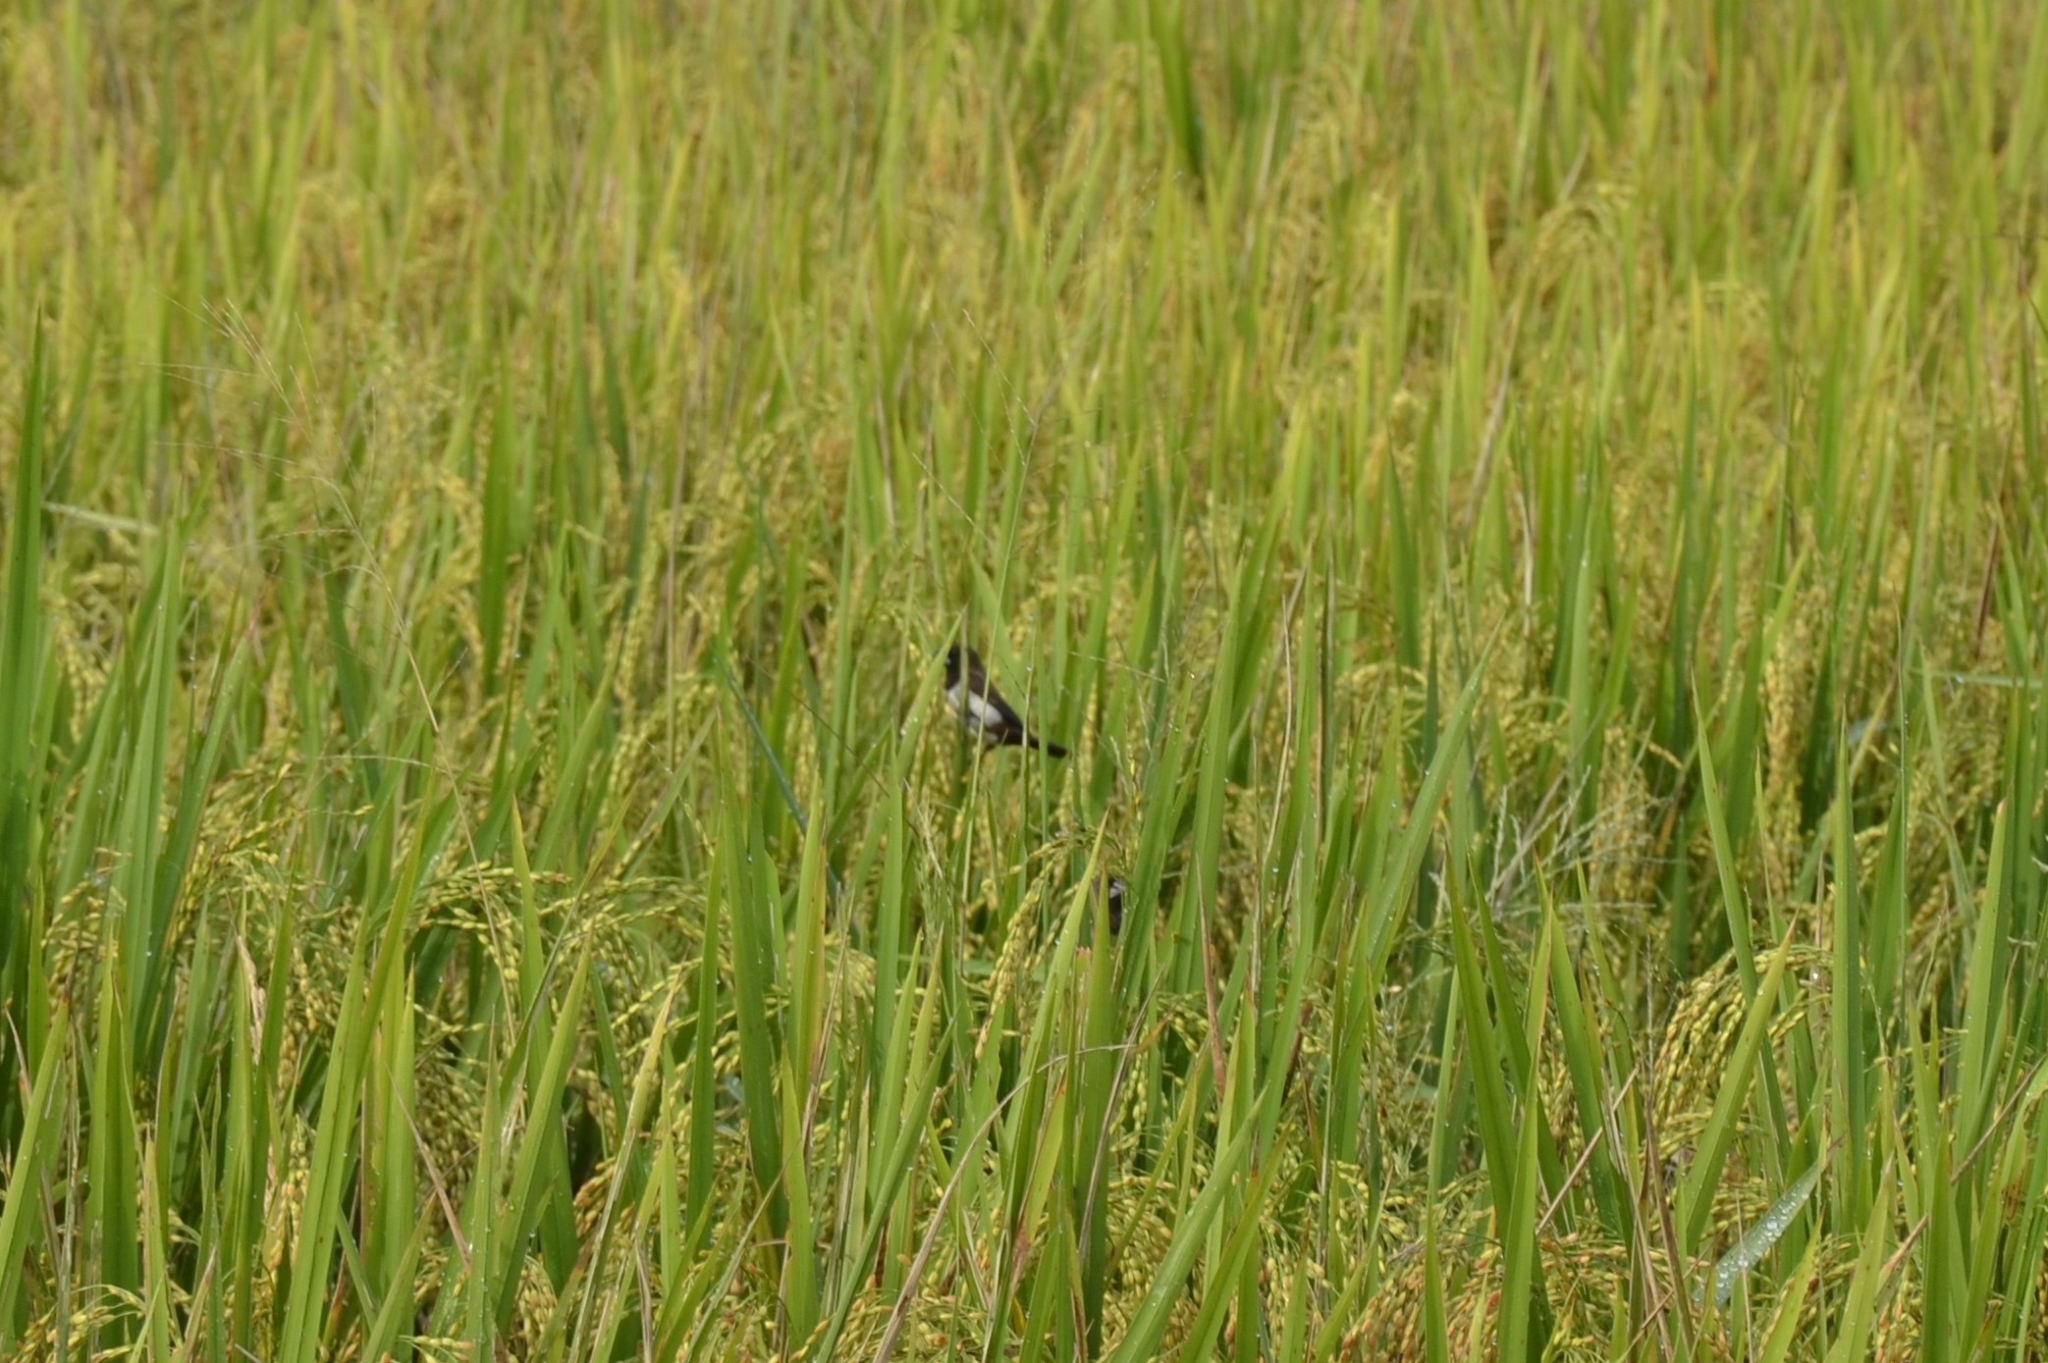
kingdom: Animalia
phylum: Chordata
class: Aves
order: Passeriformes
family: Estrildidae
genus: Lonchura
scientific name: Lonchura striata
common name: White-rumped munia
